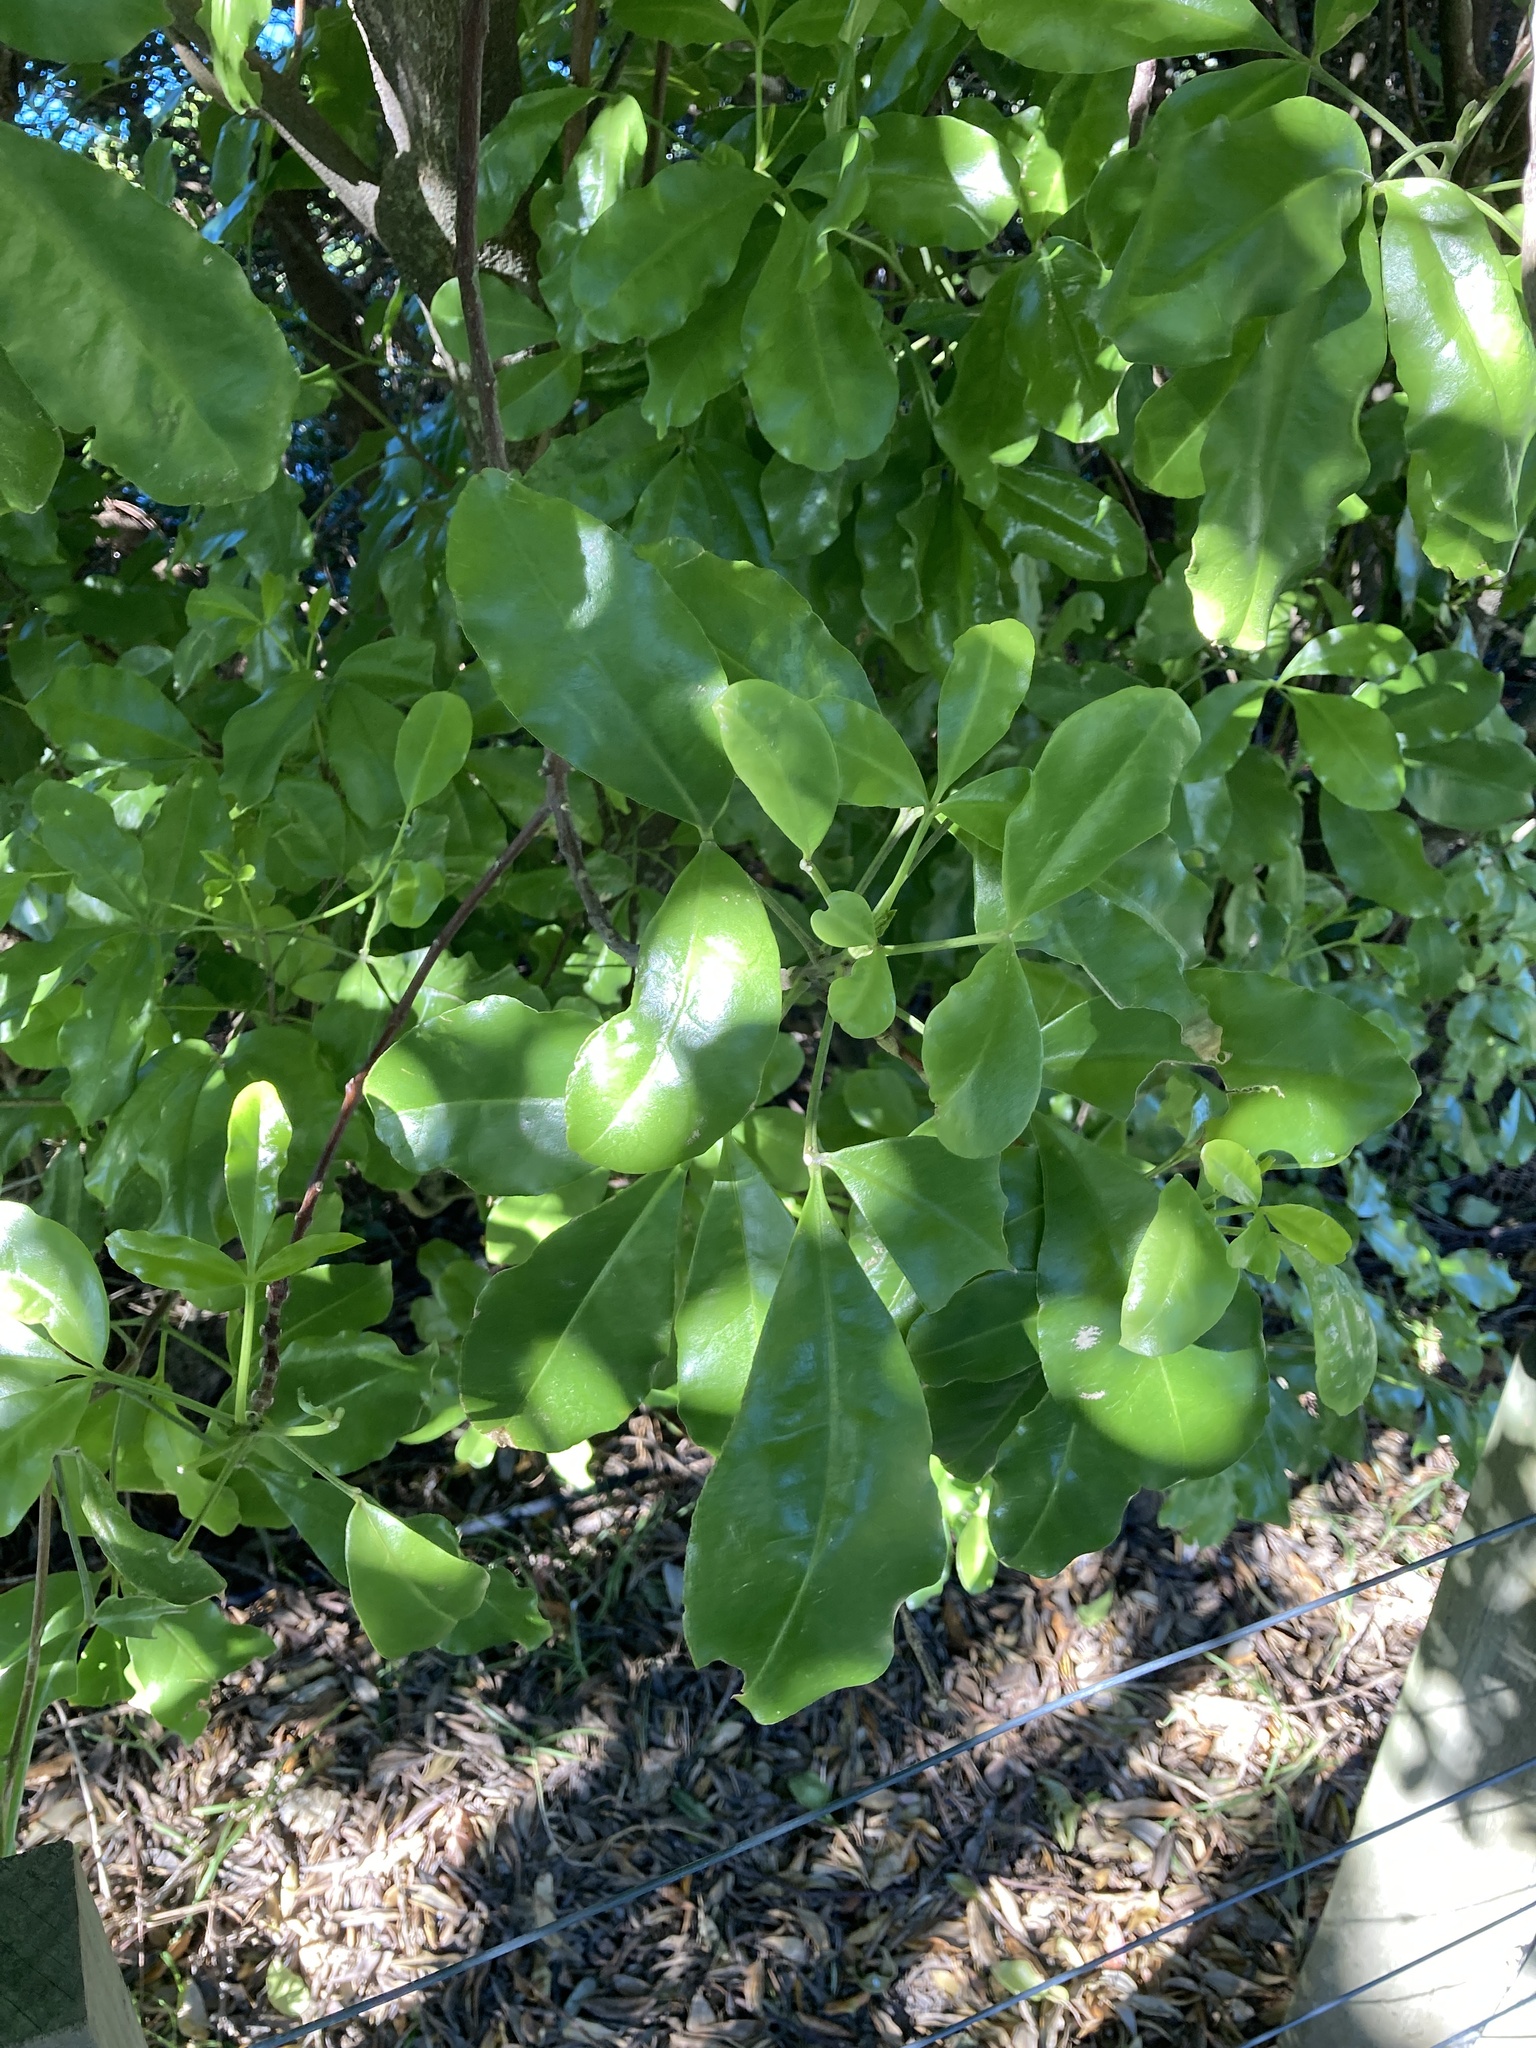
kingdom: Plantae
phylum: Tracheophyta
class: Magnoliopsida
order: Sapindales
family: Rutaceae
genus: Melicope
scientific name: Melicope ternata
